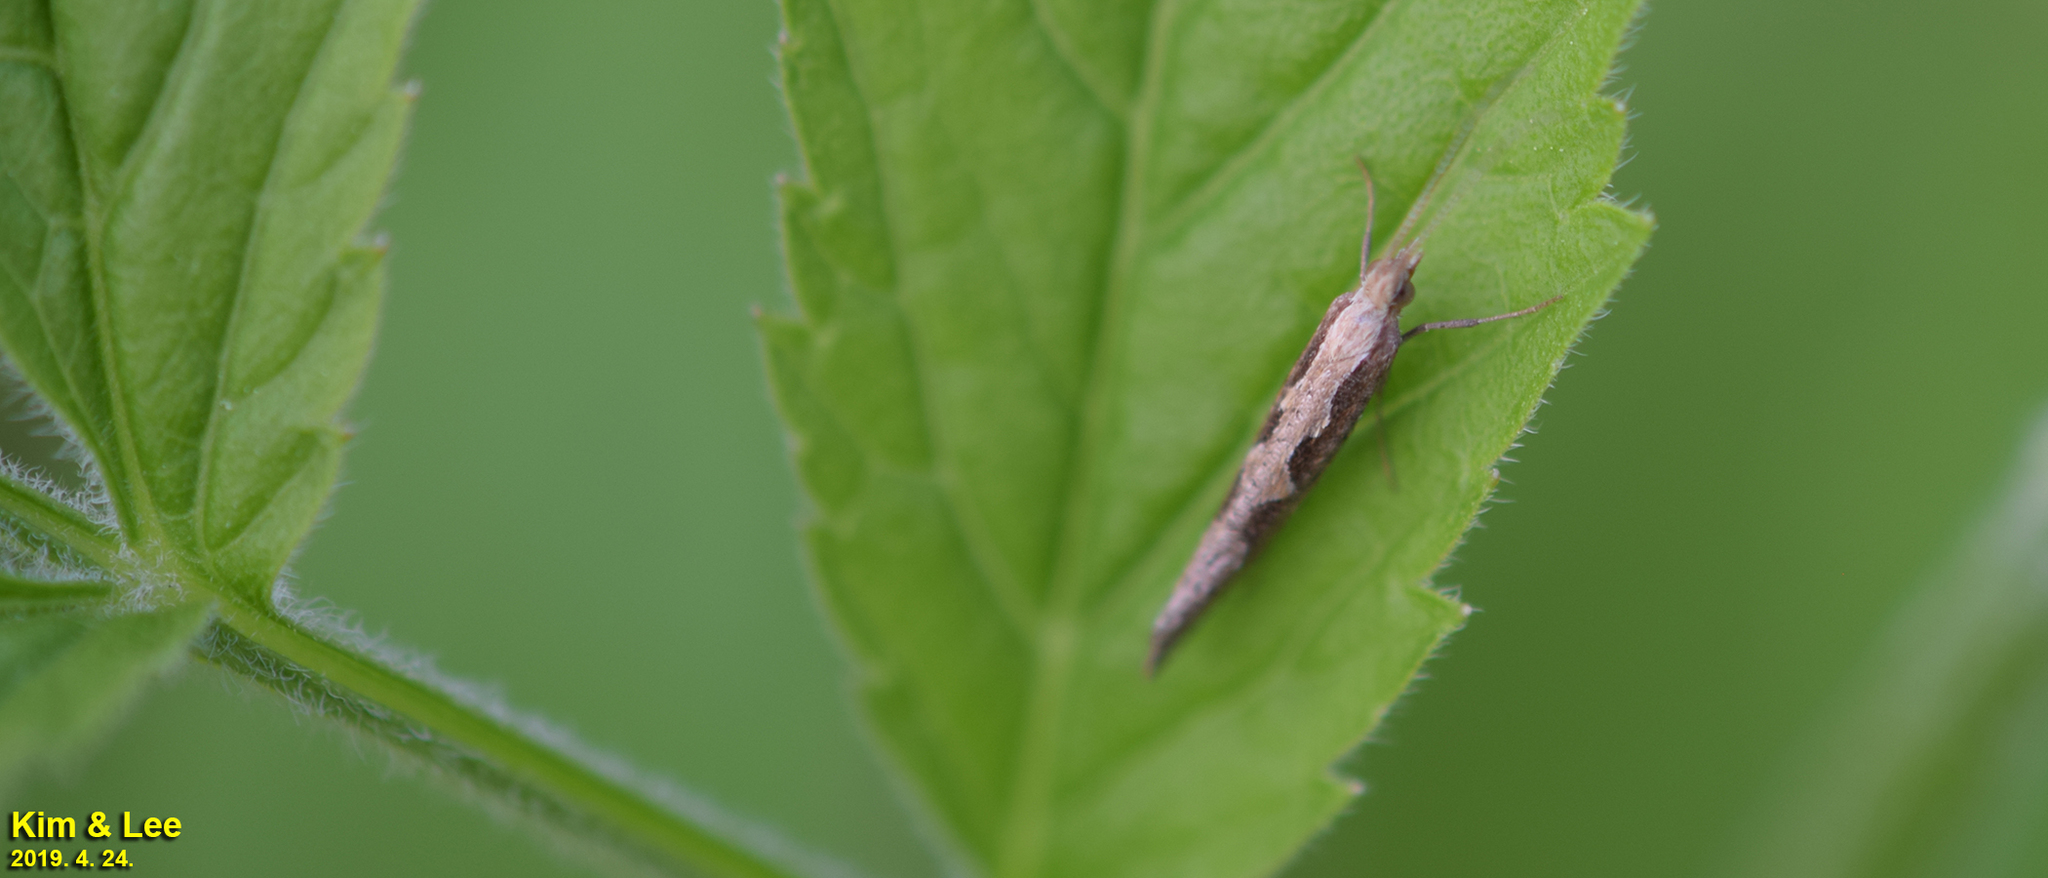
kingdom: Animalia
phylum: Arthropoda
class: Insecta
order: Lepidoptera
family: Plutellidae
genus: Plutella
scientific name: Plutella xylostella
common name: Diamond-back moth
